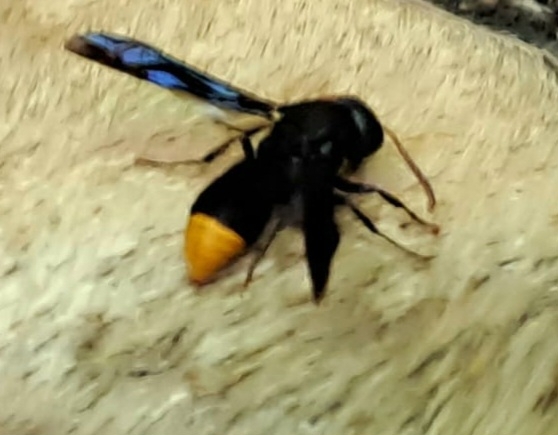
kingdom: Animalia
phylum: Arthropoda
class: Insecta
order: Hymenoptera
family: Vespidae
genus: Synagris
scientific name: Synagris
